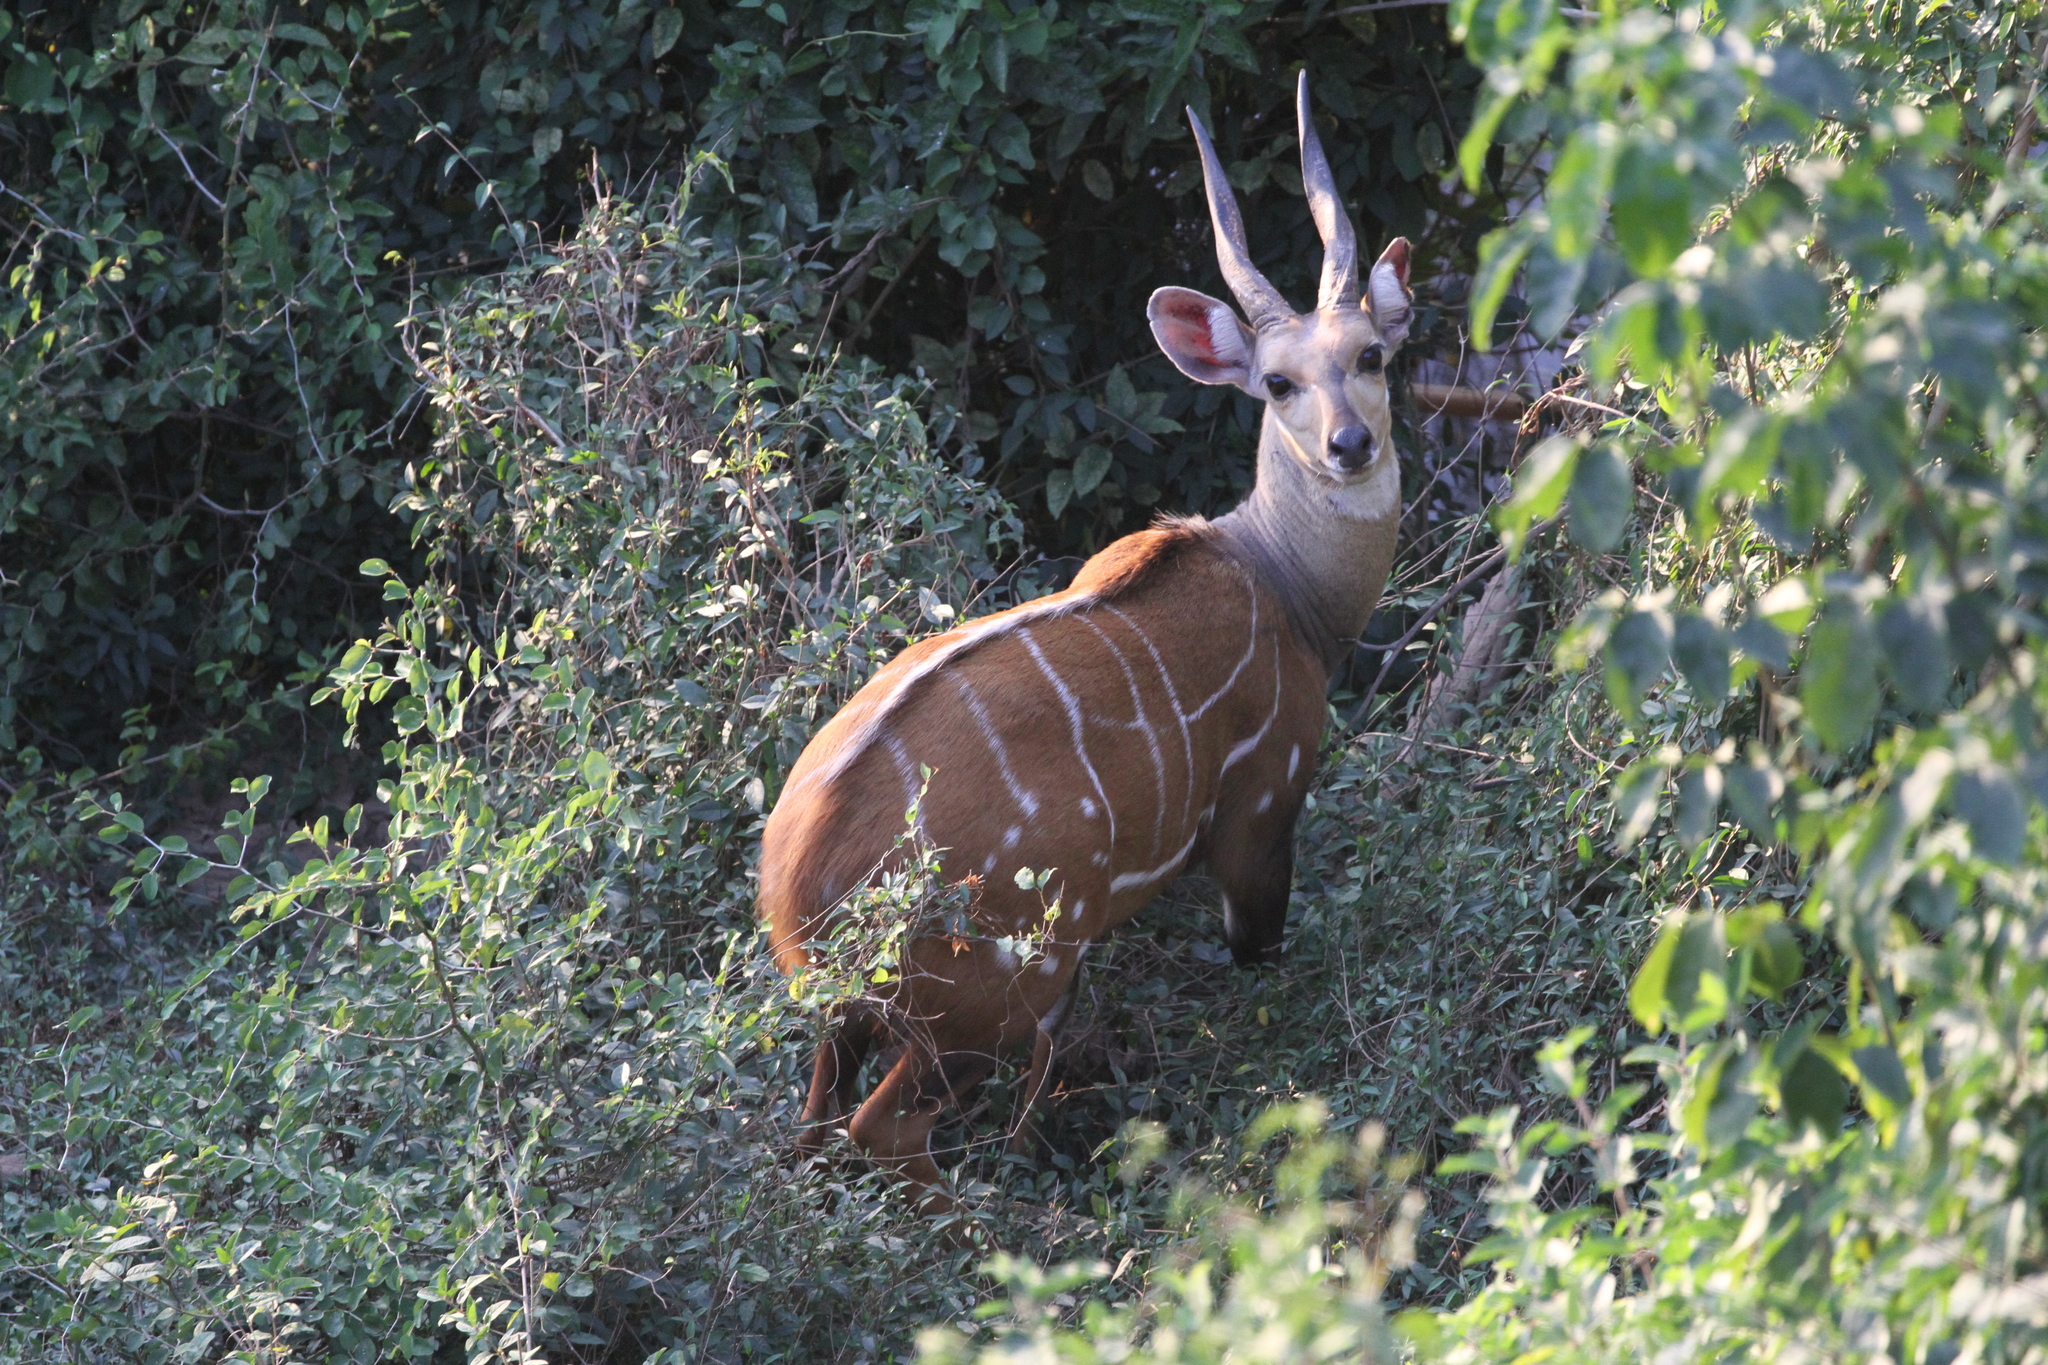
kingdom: Animalia
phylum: Chordata
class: Mammalia
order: Artiodactyla
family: Bovidae
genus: Tragelaphus
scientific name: Tragelaphus scriptus
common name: Bushbuck
